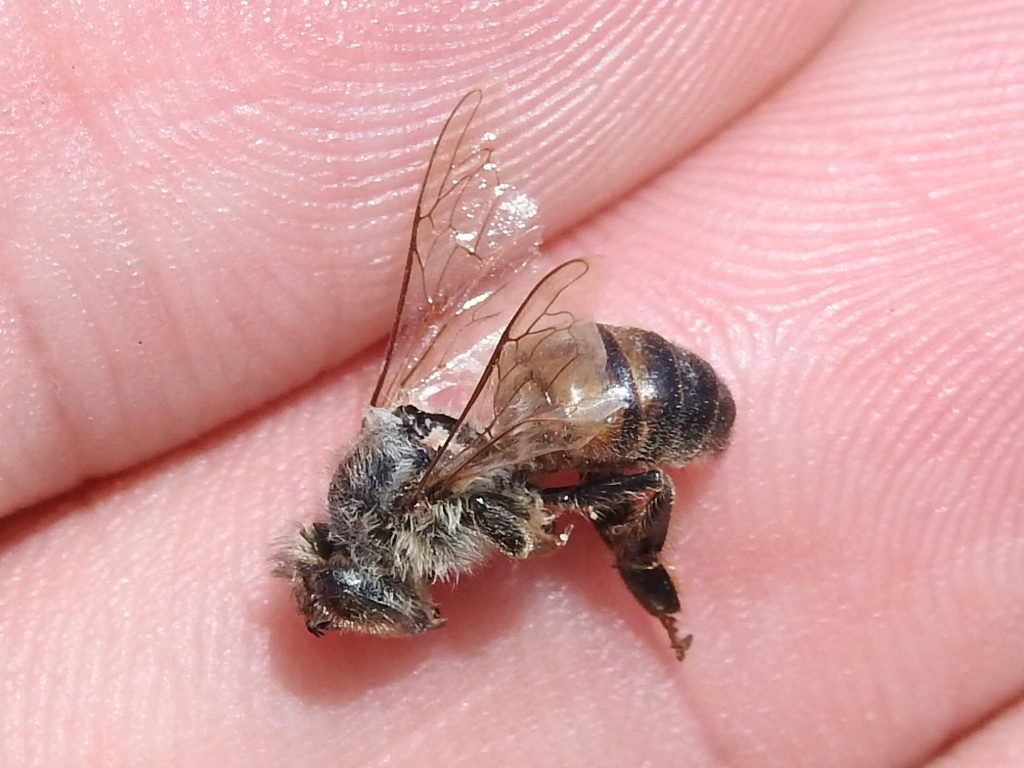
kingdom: Animalia
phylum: Arthropoda
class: Insecta
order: Hymenoptera
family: Apidae
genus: Apis
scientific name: Apis mellifera
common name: Honey bee
